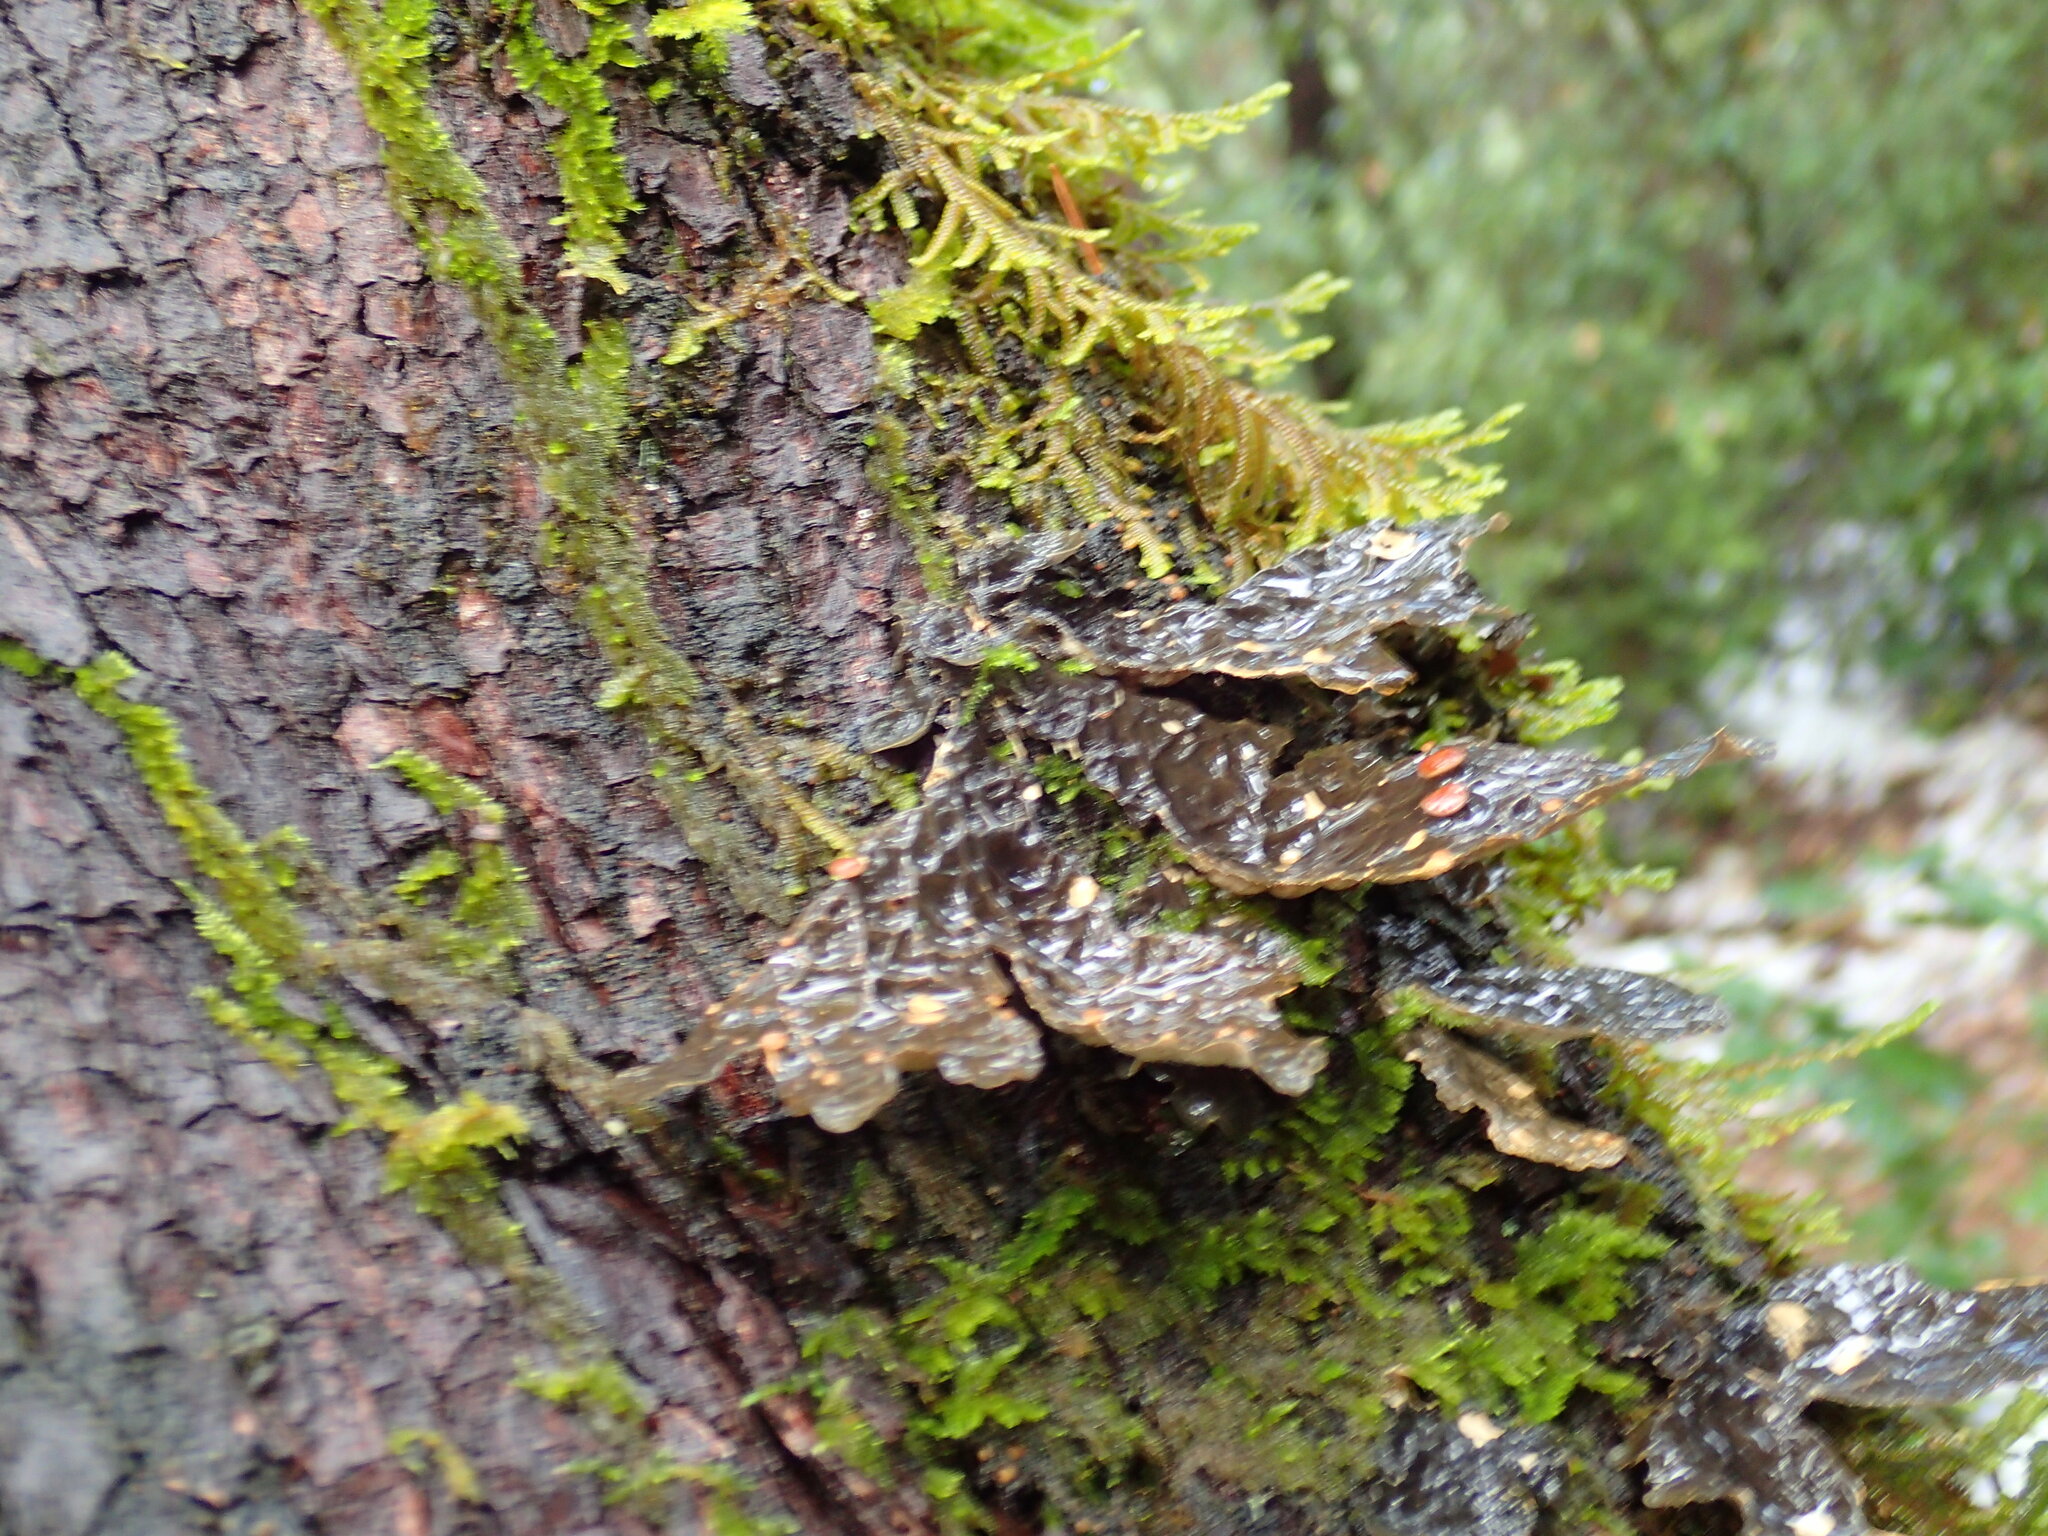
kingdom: Fungi
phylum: Ascomycota
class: Lecanoromycetes
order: Peltigerales
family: Lobariaceae
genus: Lobaria
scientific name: Lobaria anthraspis
